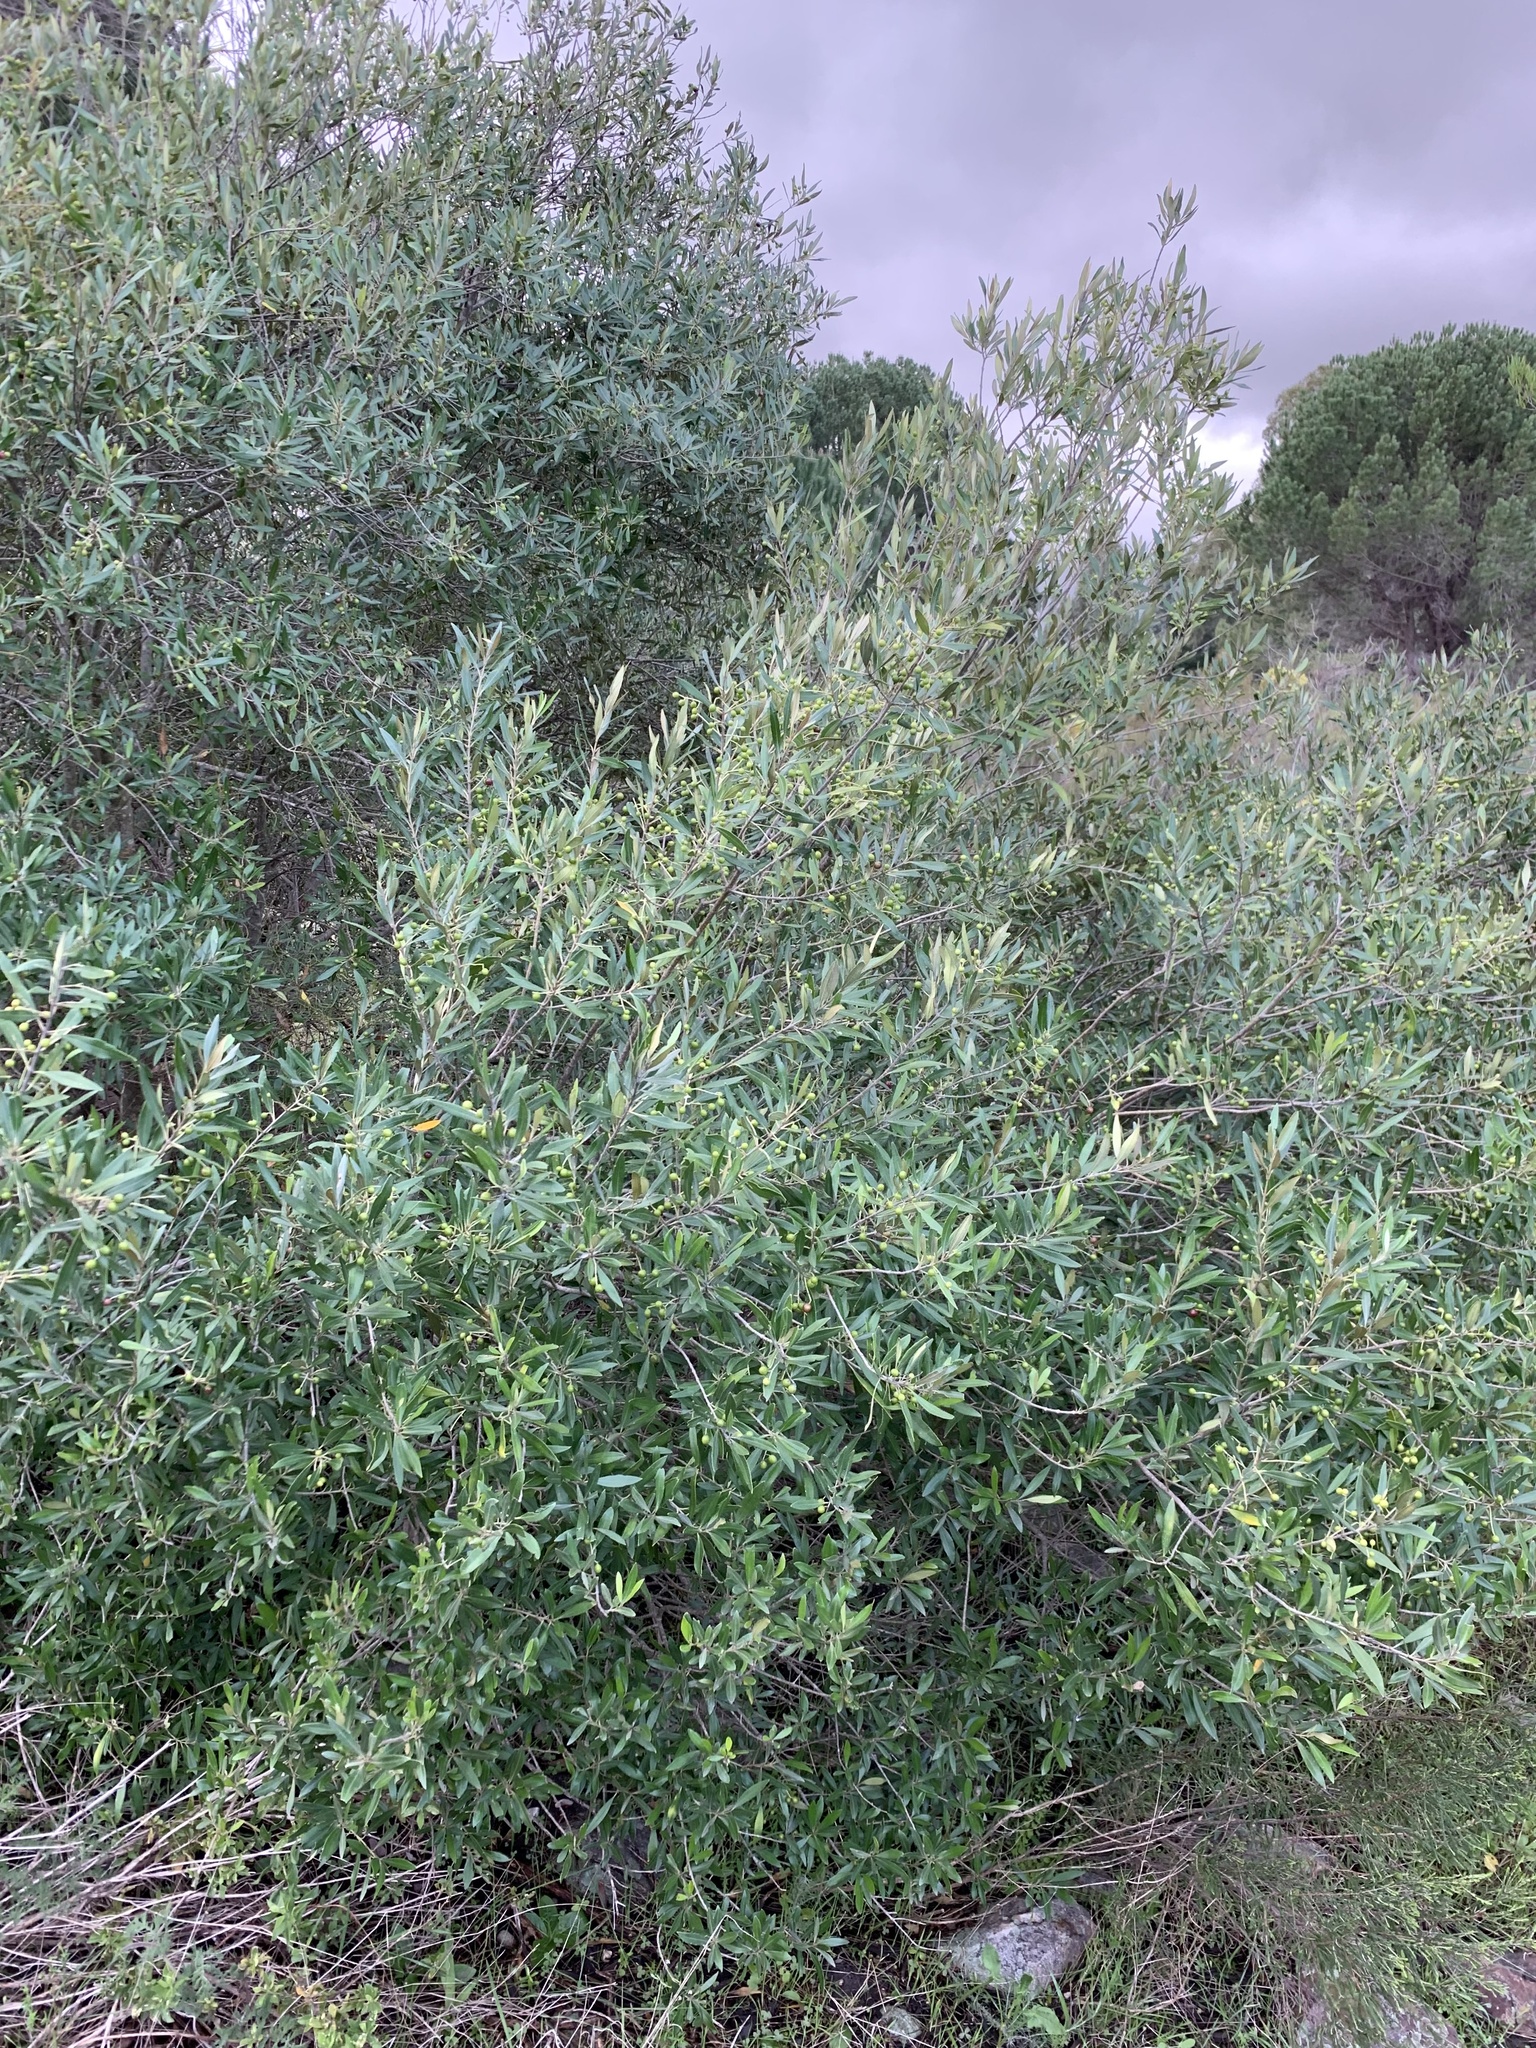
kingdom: Plantae
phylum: Tracheophyta
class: Magnoliopsida
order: Lamiales
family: Oleaceae
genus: Olea
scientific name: Olea europaea
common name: Olive
